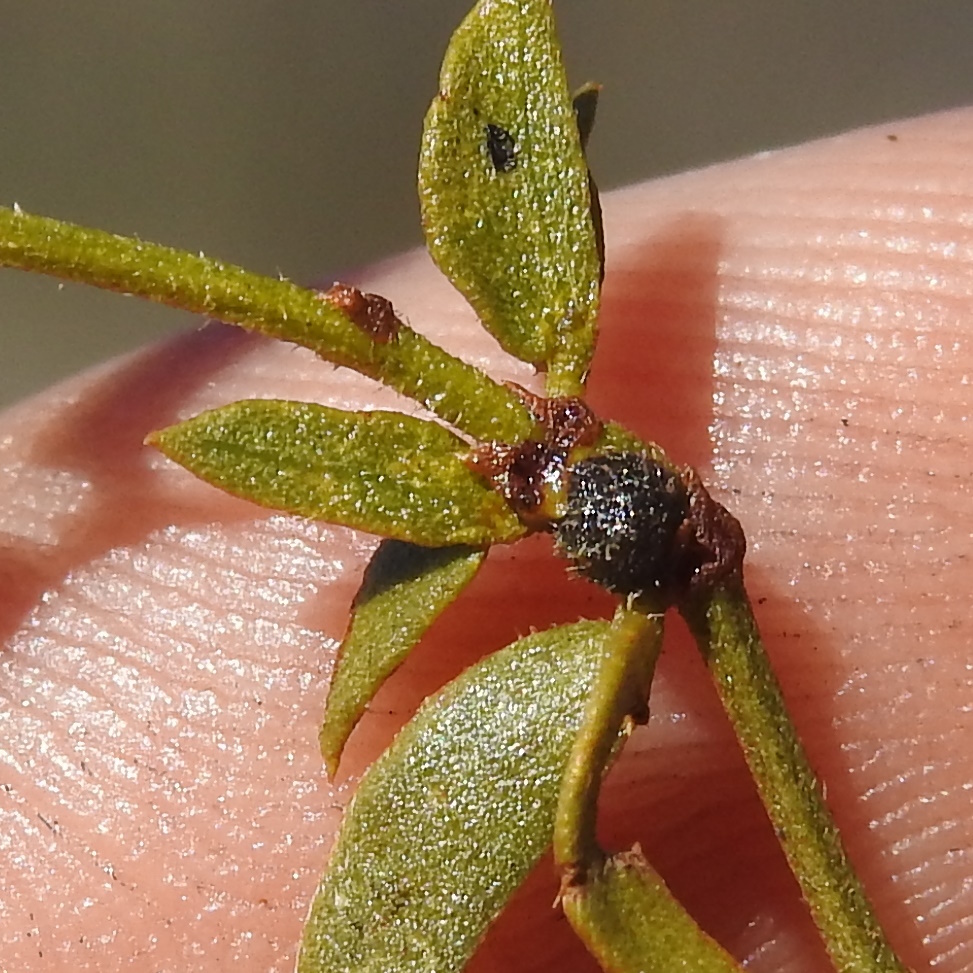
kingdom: Animalia
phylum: Arthropoda
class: Insecta
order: Diptera
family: Cecidomyiidae
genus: Asphondylia
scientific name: Asphondylia bullata
